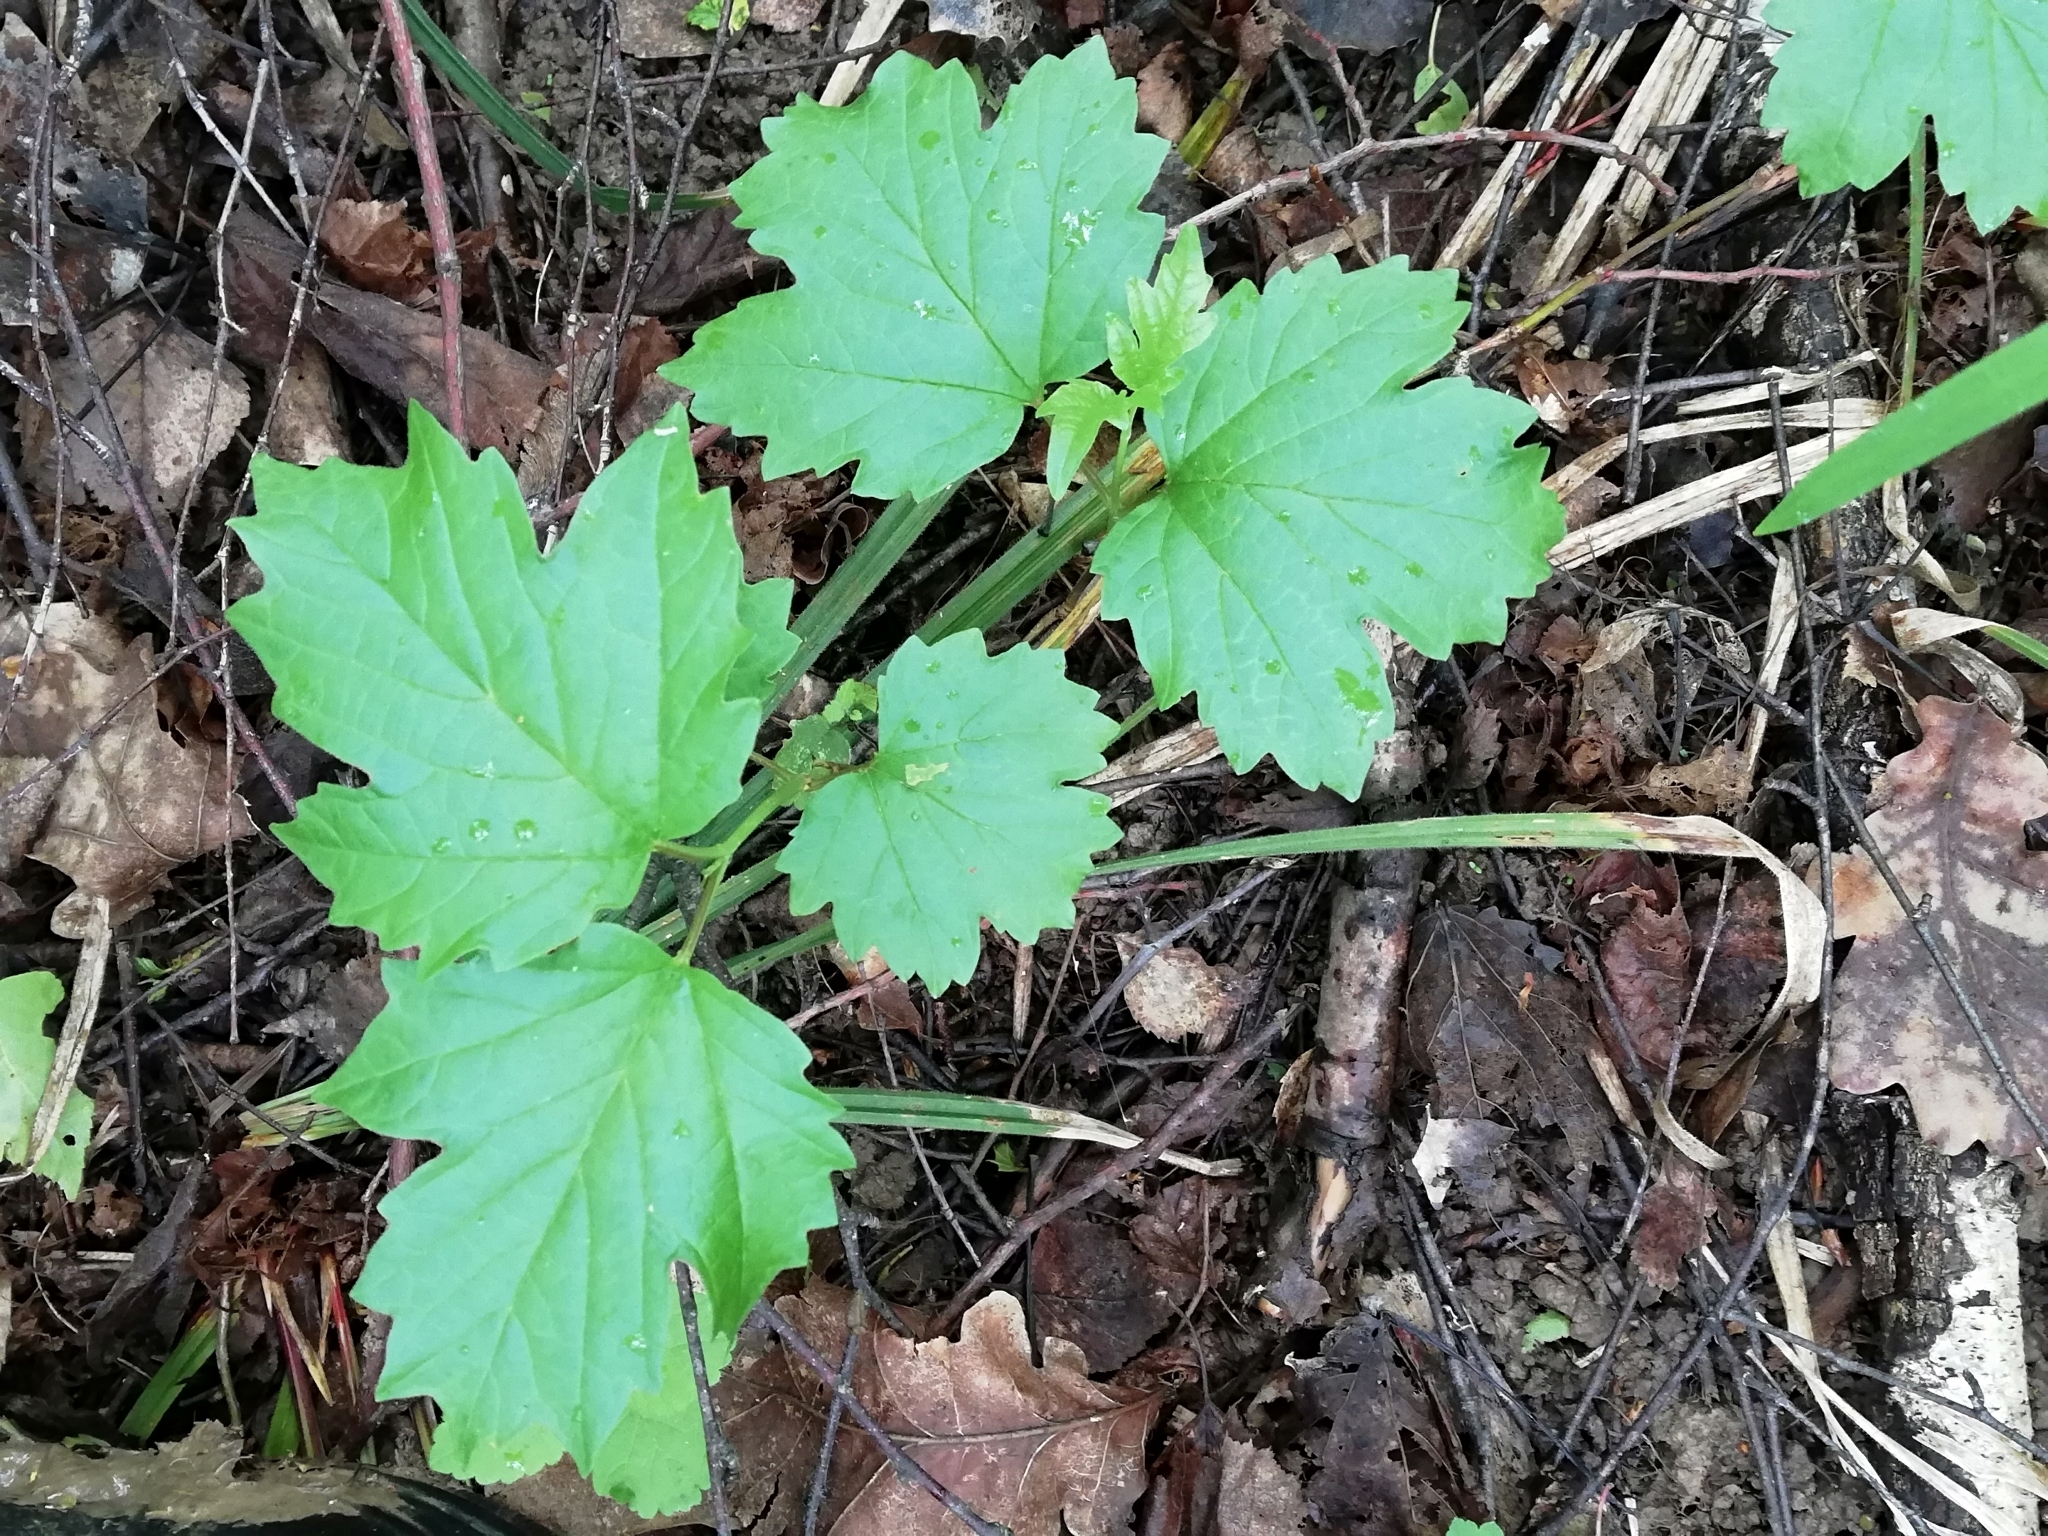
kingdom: Plantae
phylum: Tracheophyta
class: Magnoliopsida
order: Dipsacales
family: Viburnaceae
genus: Viburnum
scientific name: Viburnum opulus
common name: Guelder-rose
